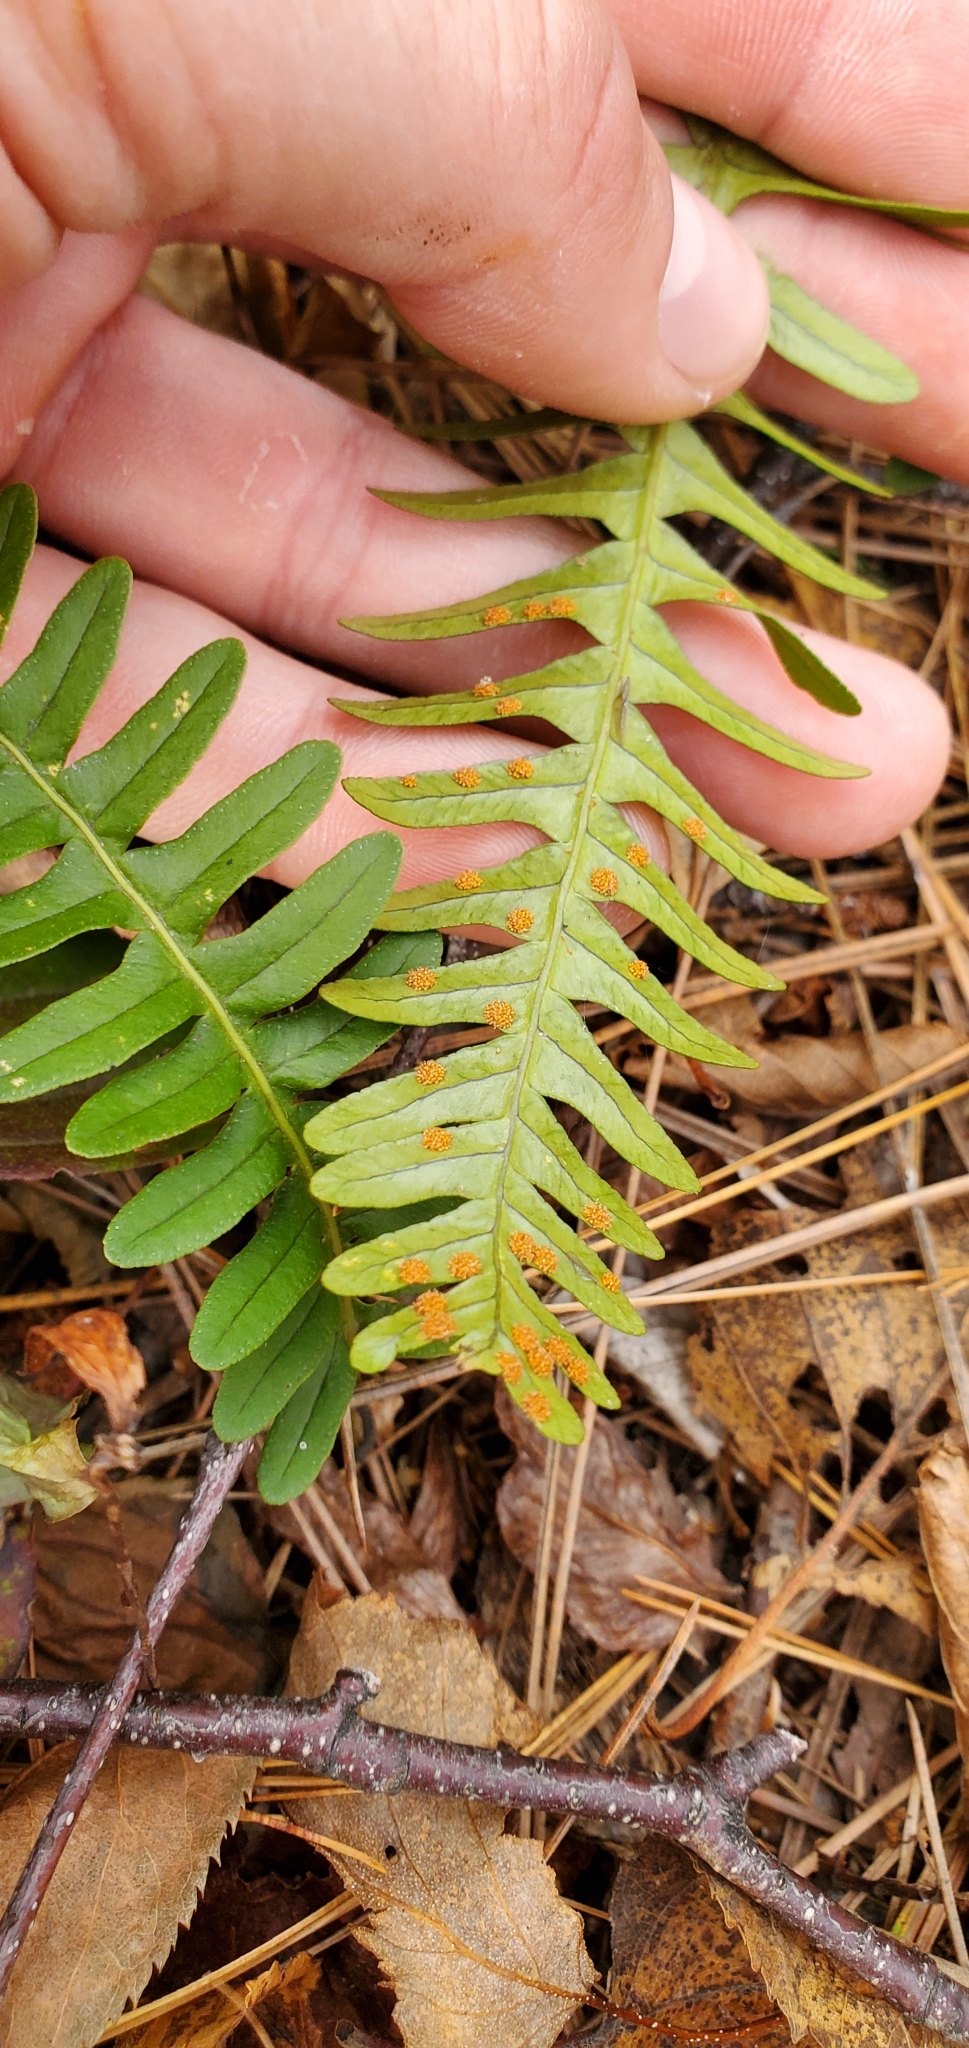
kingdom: Plantae
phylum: Tracheophyta
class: Polypodiopsida
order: Polypodiales
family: Polypodiaceae
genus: Polypodium
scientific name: Polypodium virginianum
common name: American wall fern
